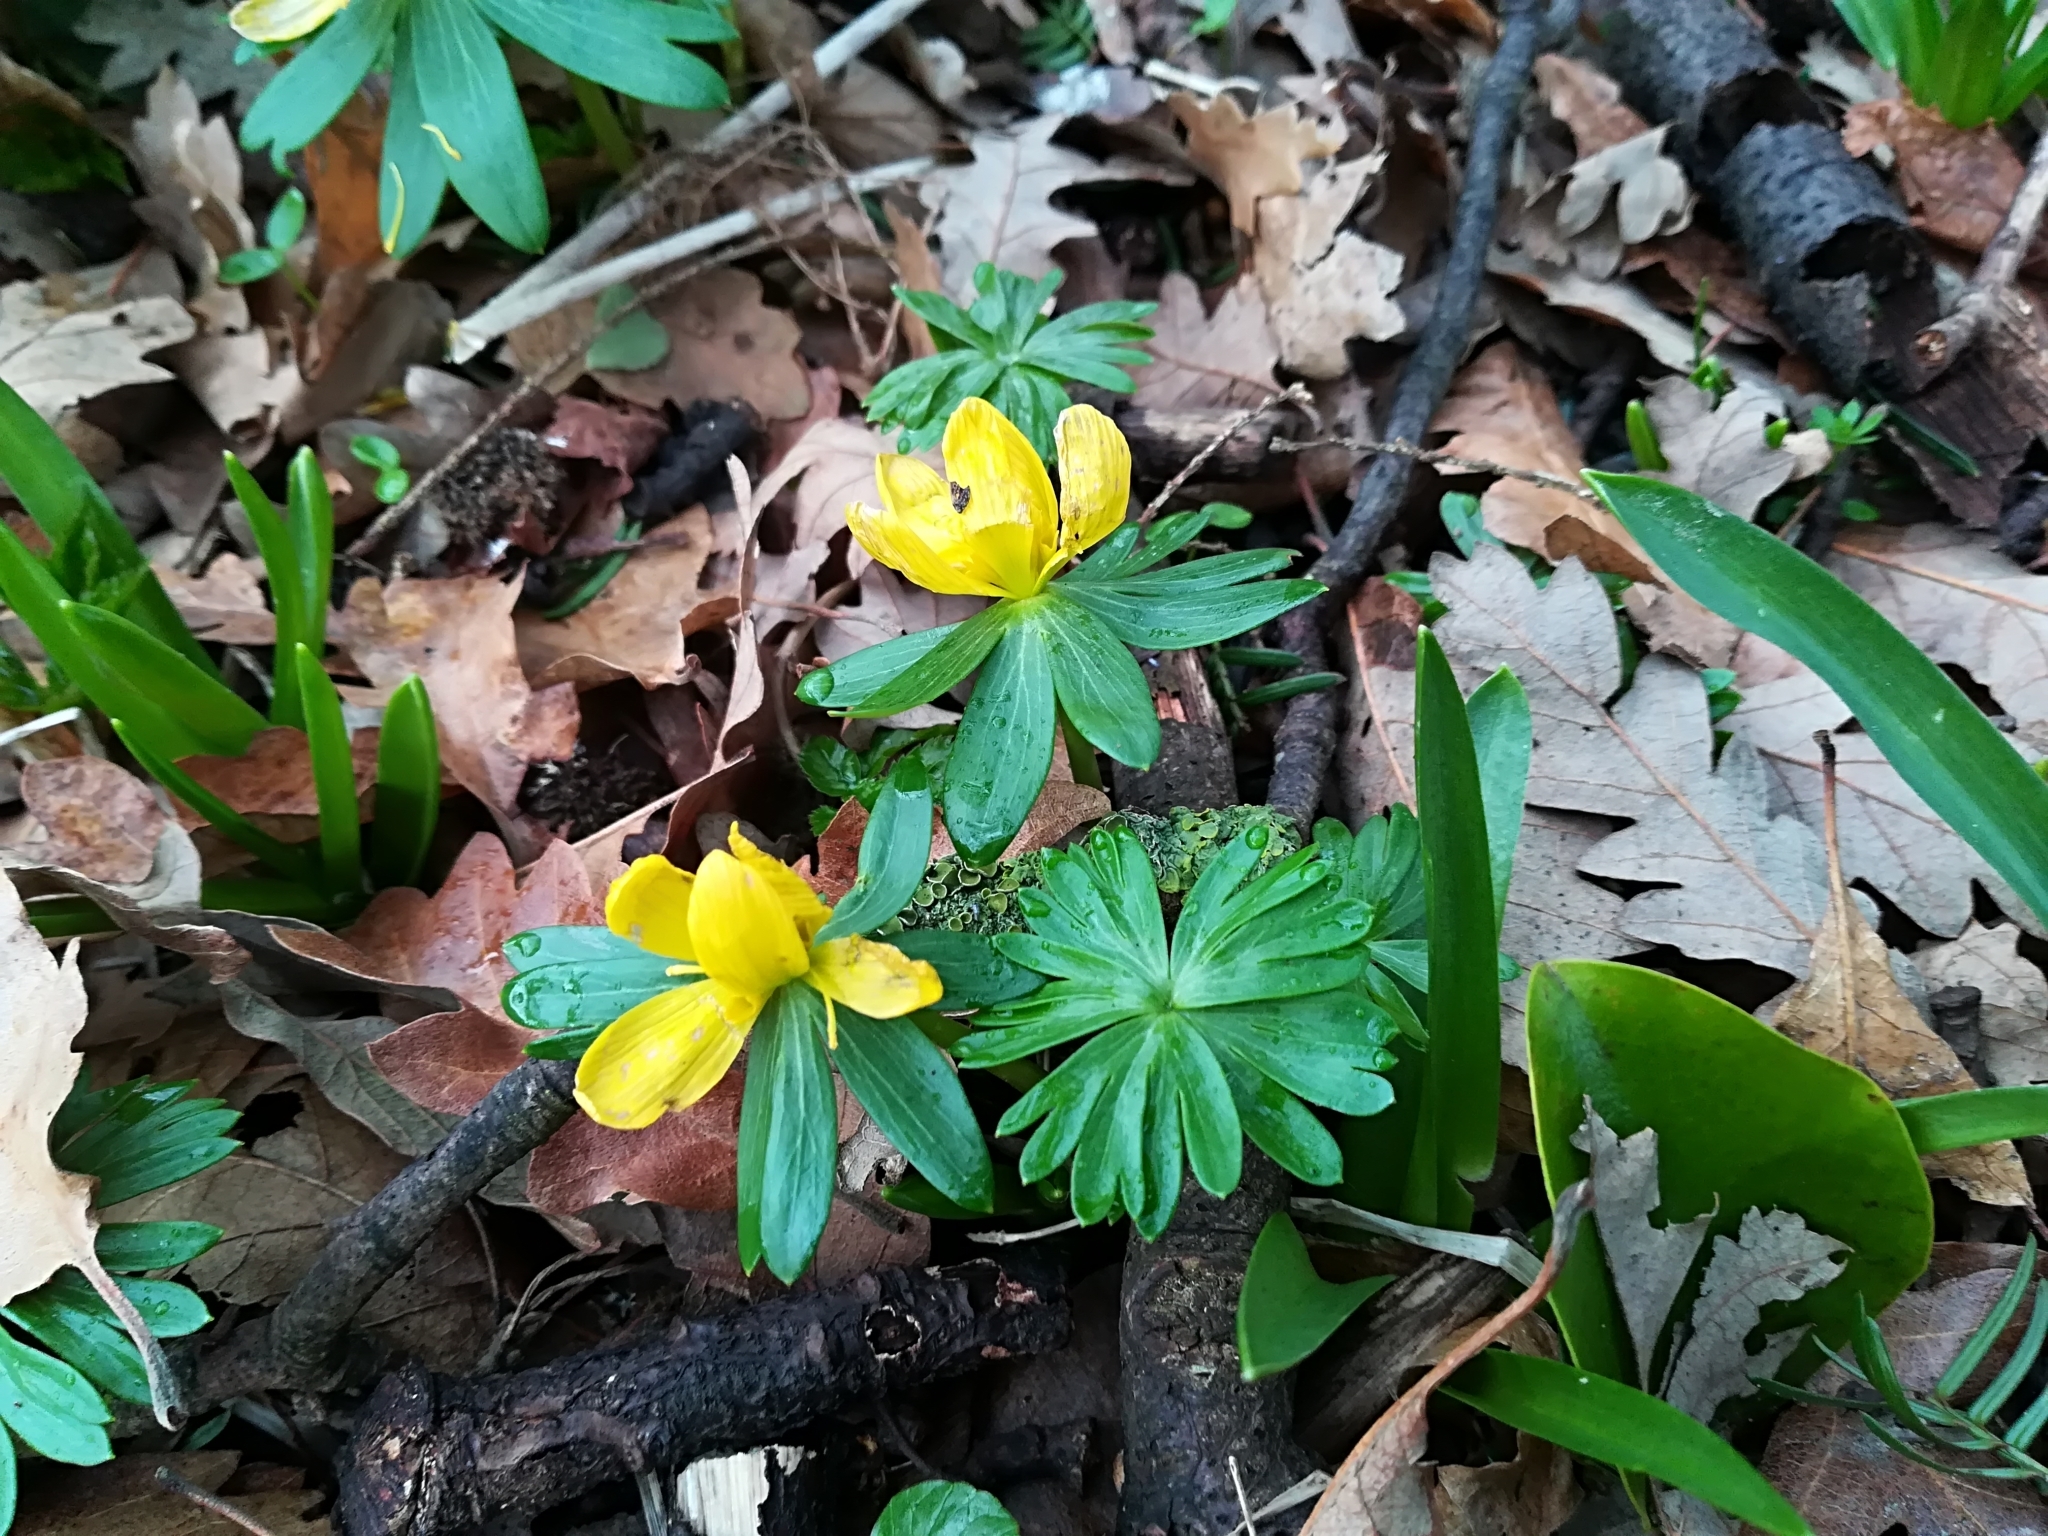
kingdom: Plantae
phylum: Tracheophyta
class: Magnoliopsida
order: Ranunculales
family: Ranunculaceae
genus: Eranthis
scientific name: Eranthis hyemalis
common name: Winter aconite
